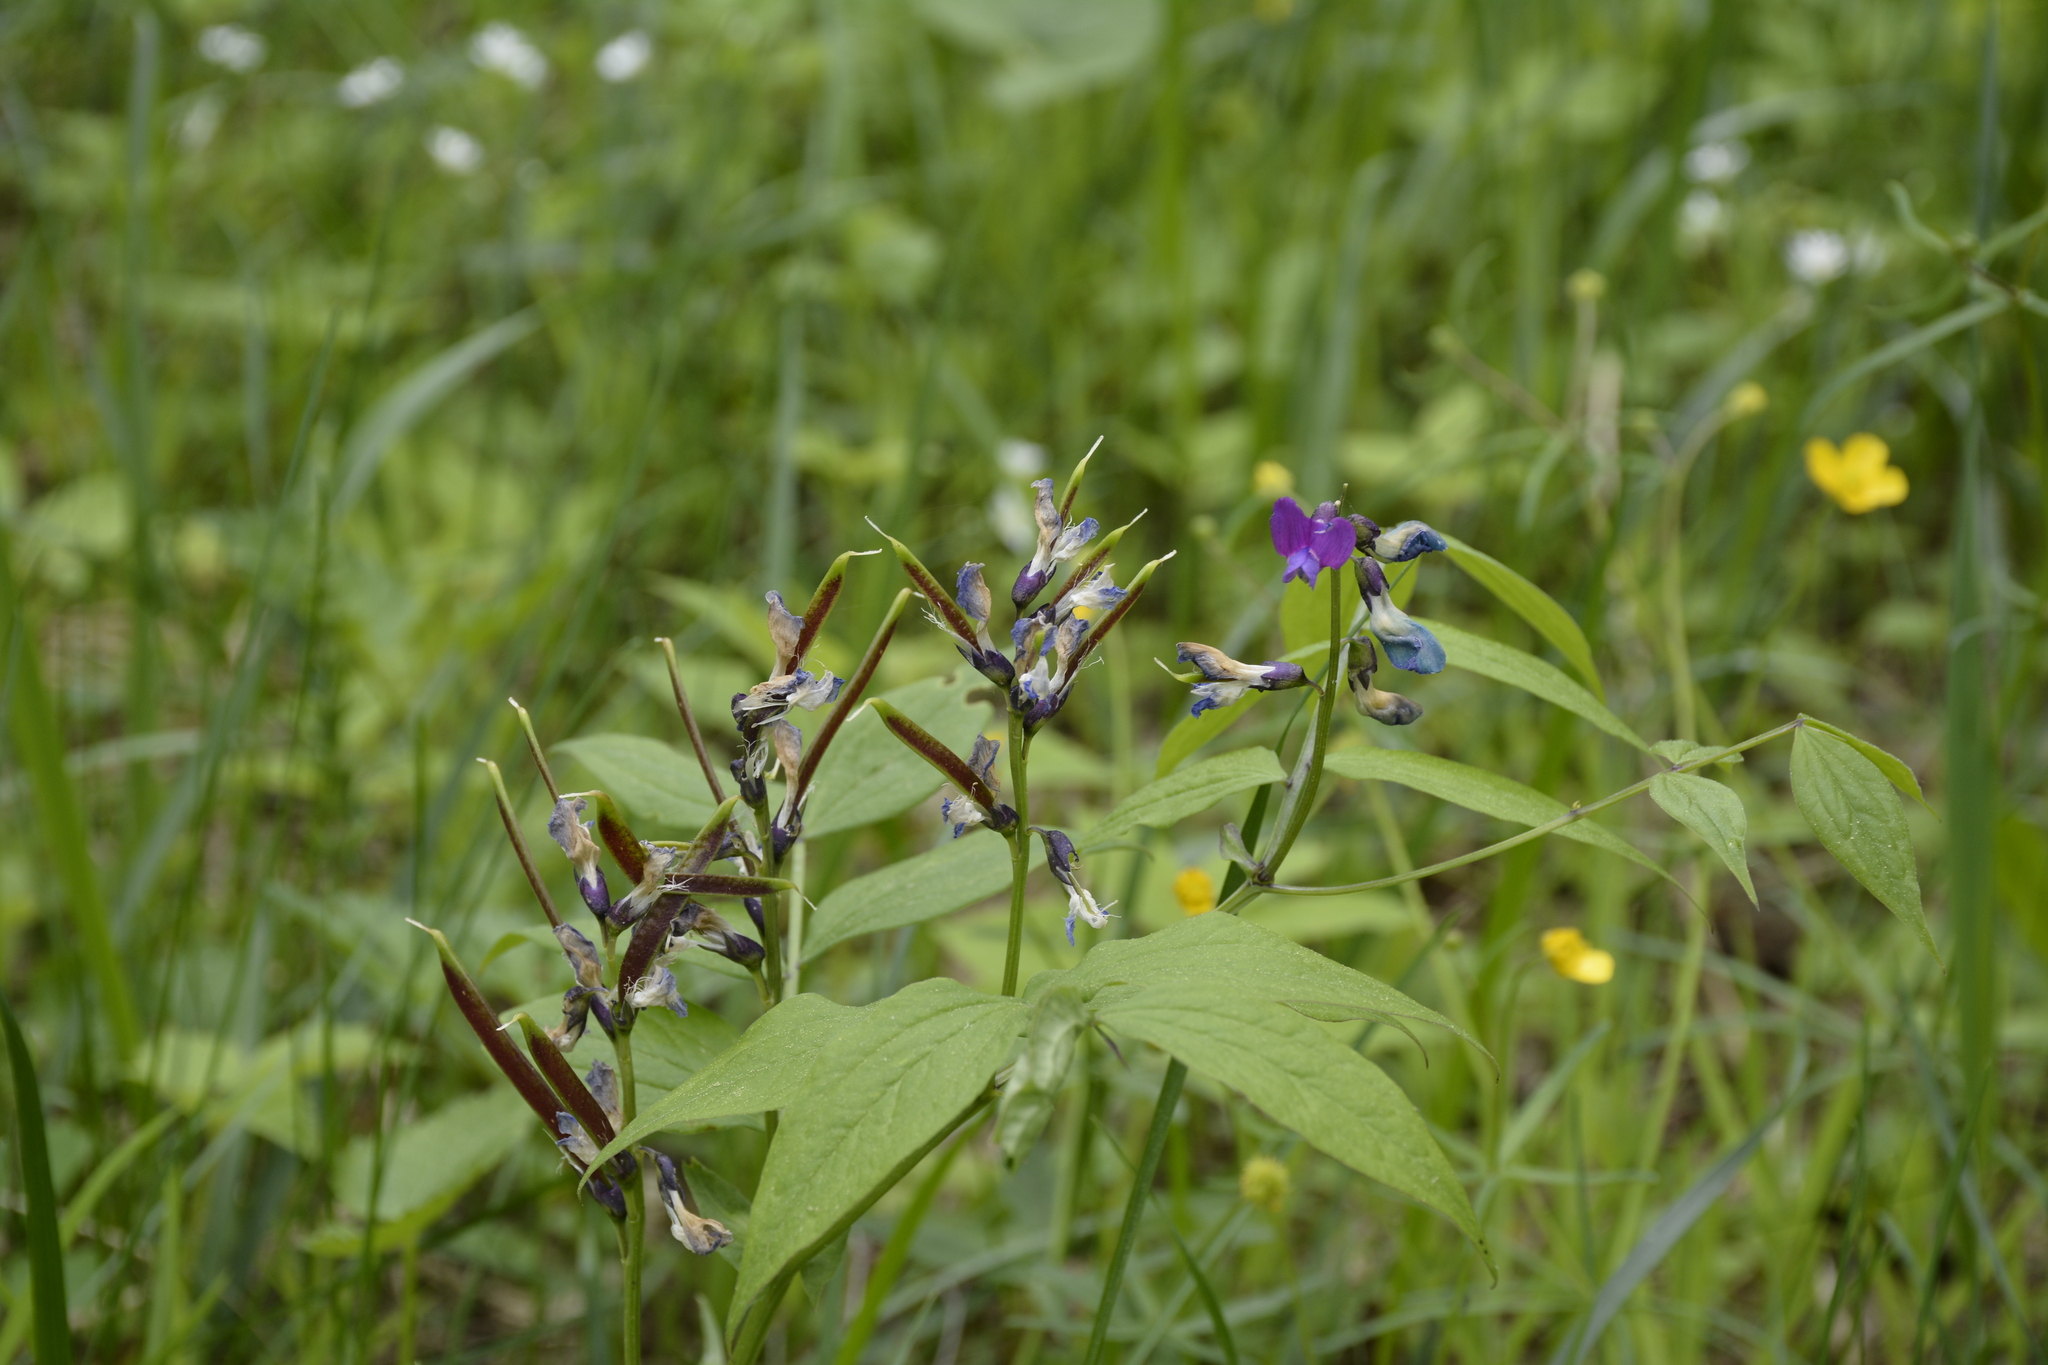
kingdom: Plantae
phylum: Tracheophyta
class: Magnoliopsida
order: Fabales
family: Fabaceae
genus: Lathyrus
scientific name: Lathyrus vernus
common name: Spring pea
